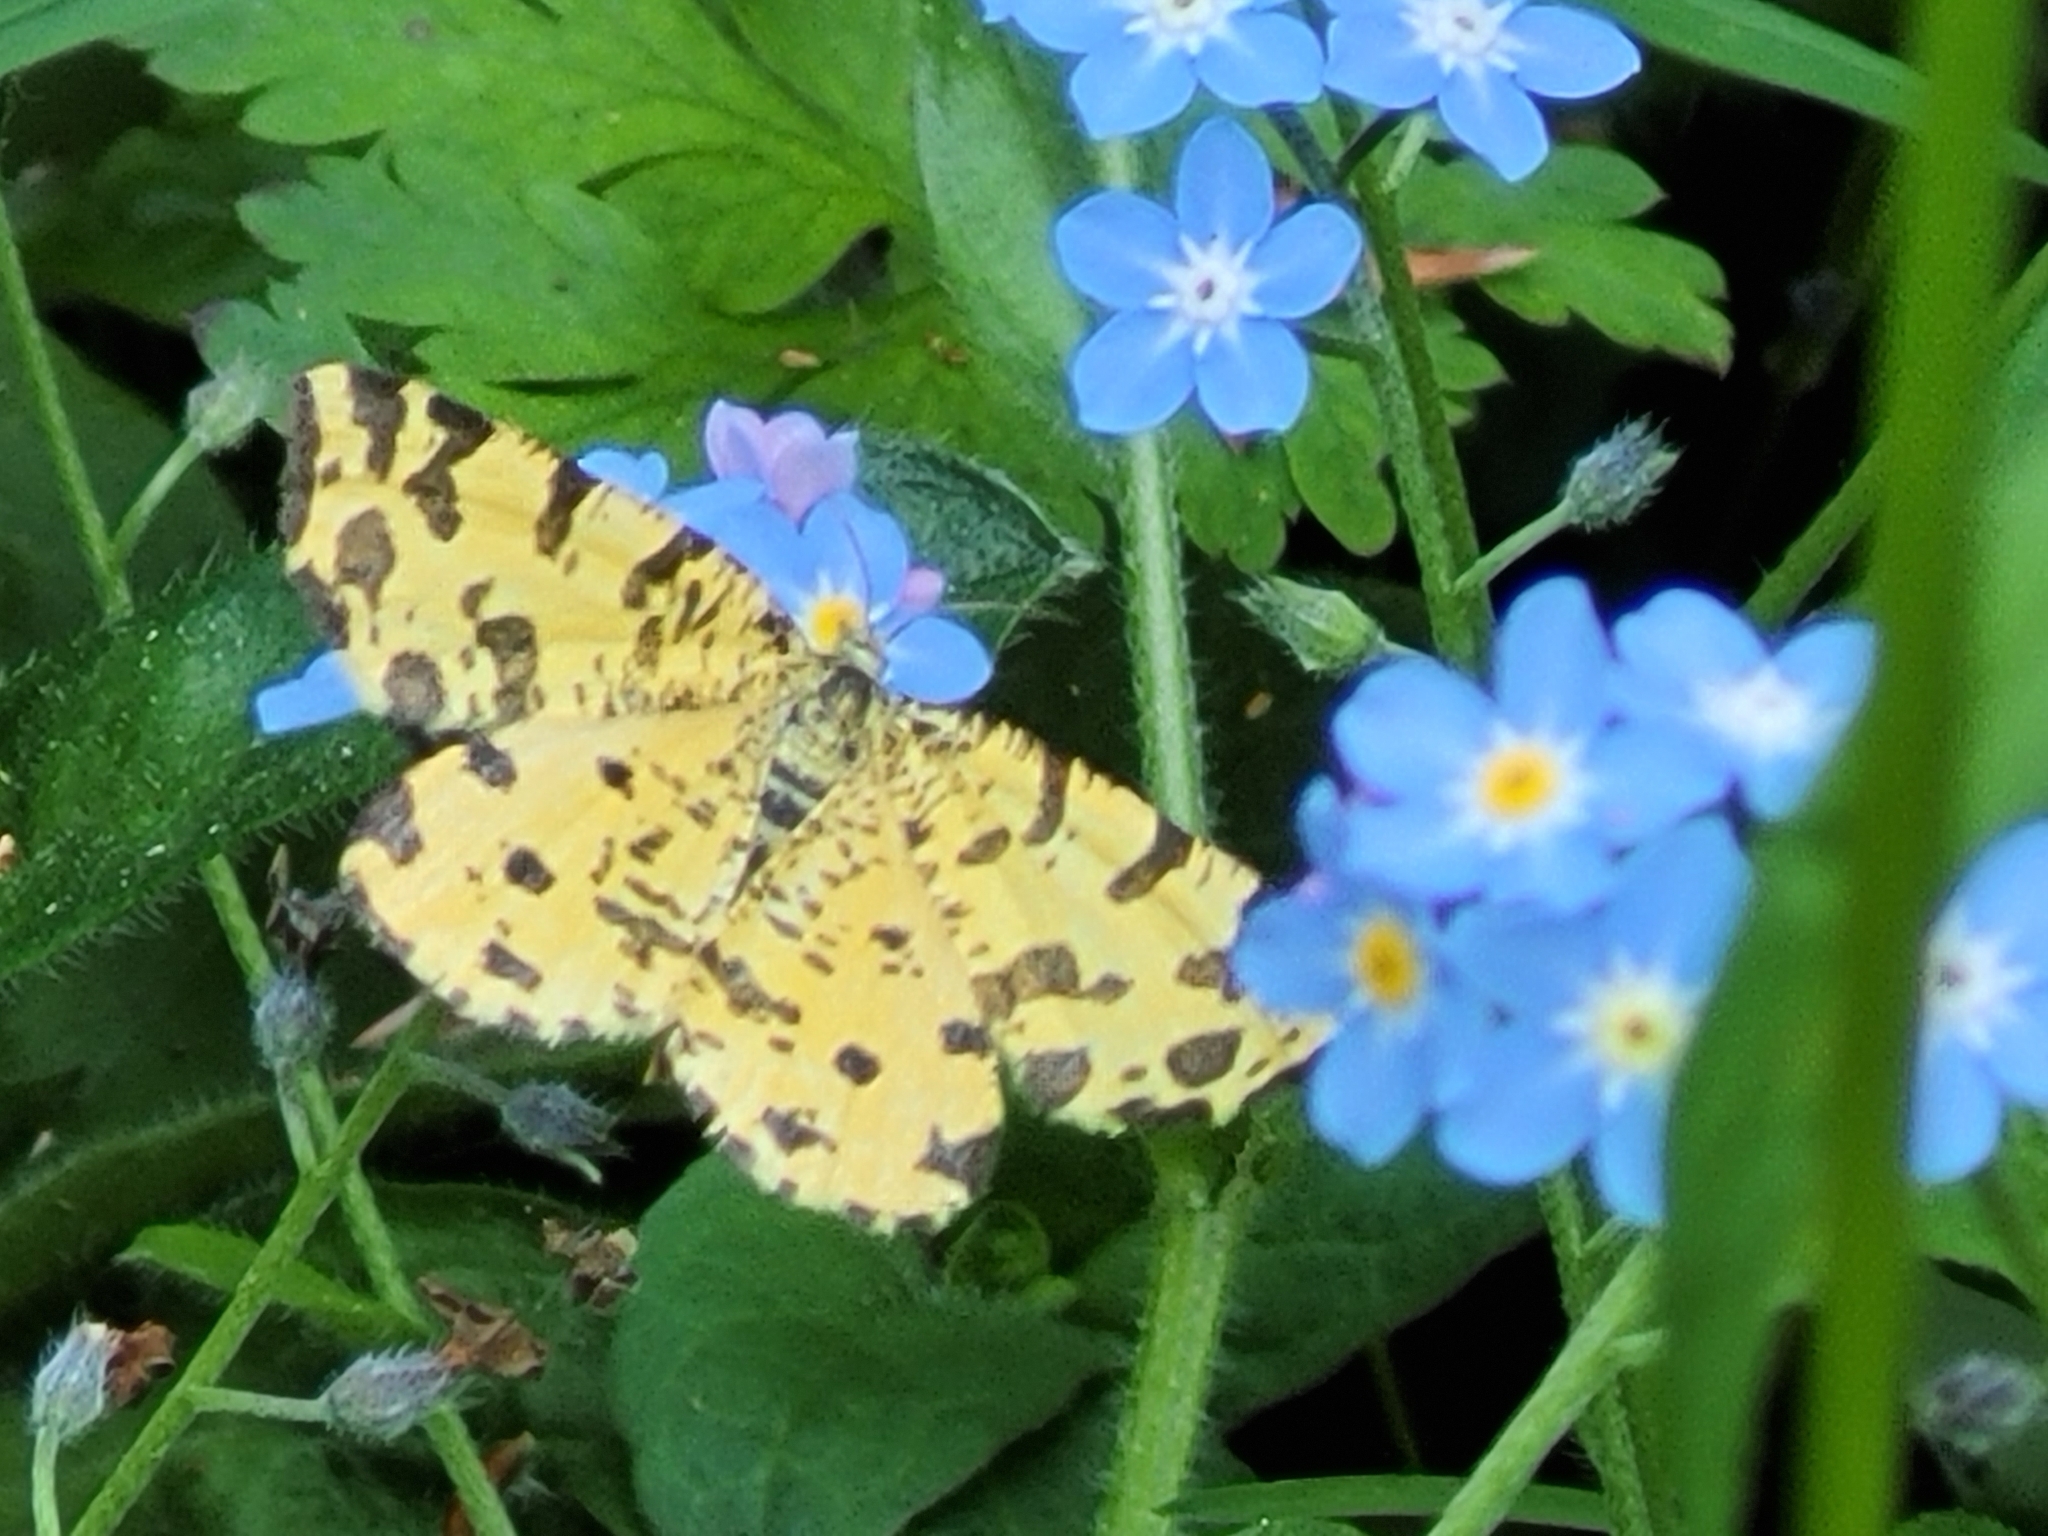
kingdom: Animalia
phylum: Arthropoda
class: Insecta
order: Lepidoptera
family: Geometridae
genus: Pseudopanthera
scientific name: Pseudopanthera macularia
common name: Speckled yellow
